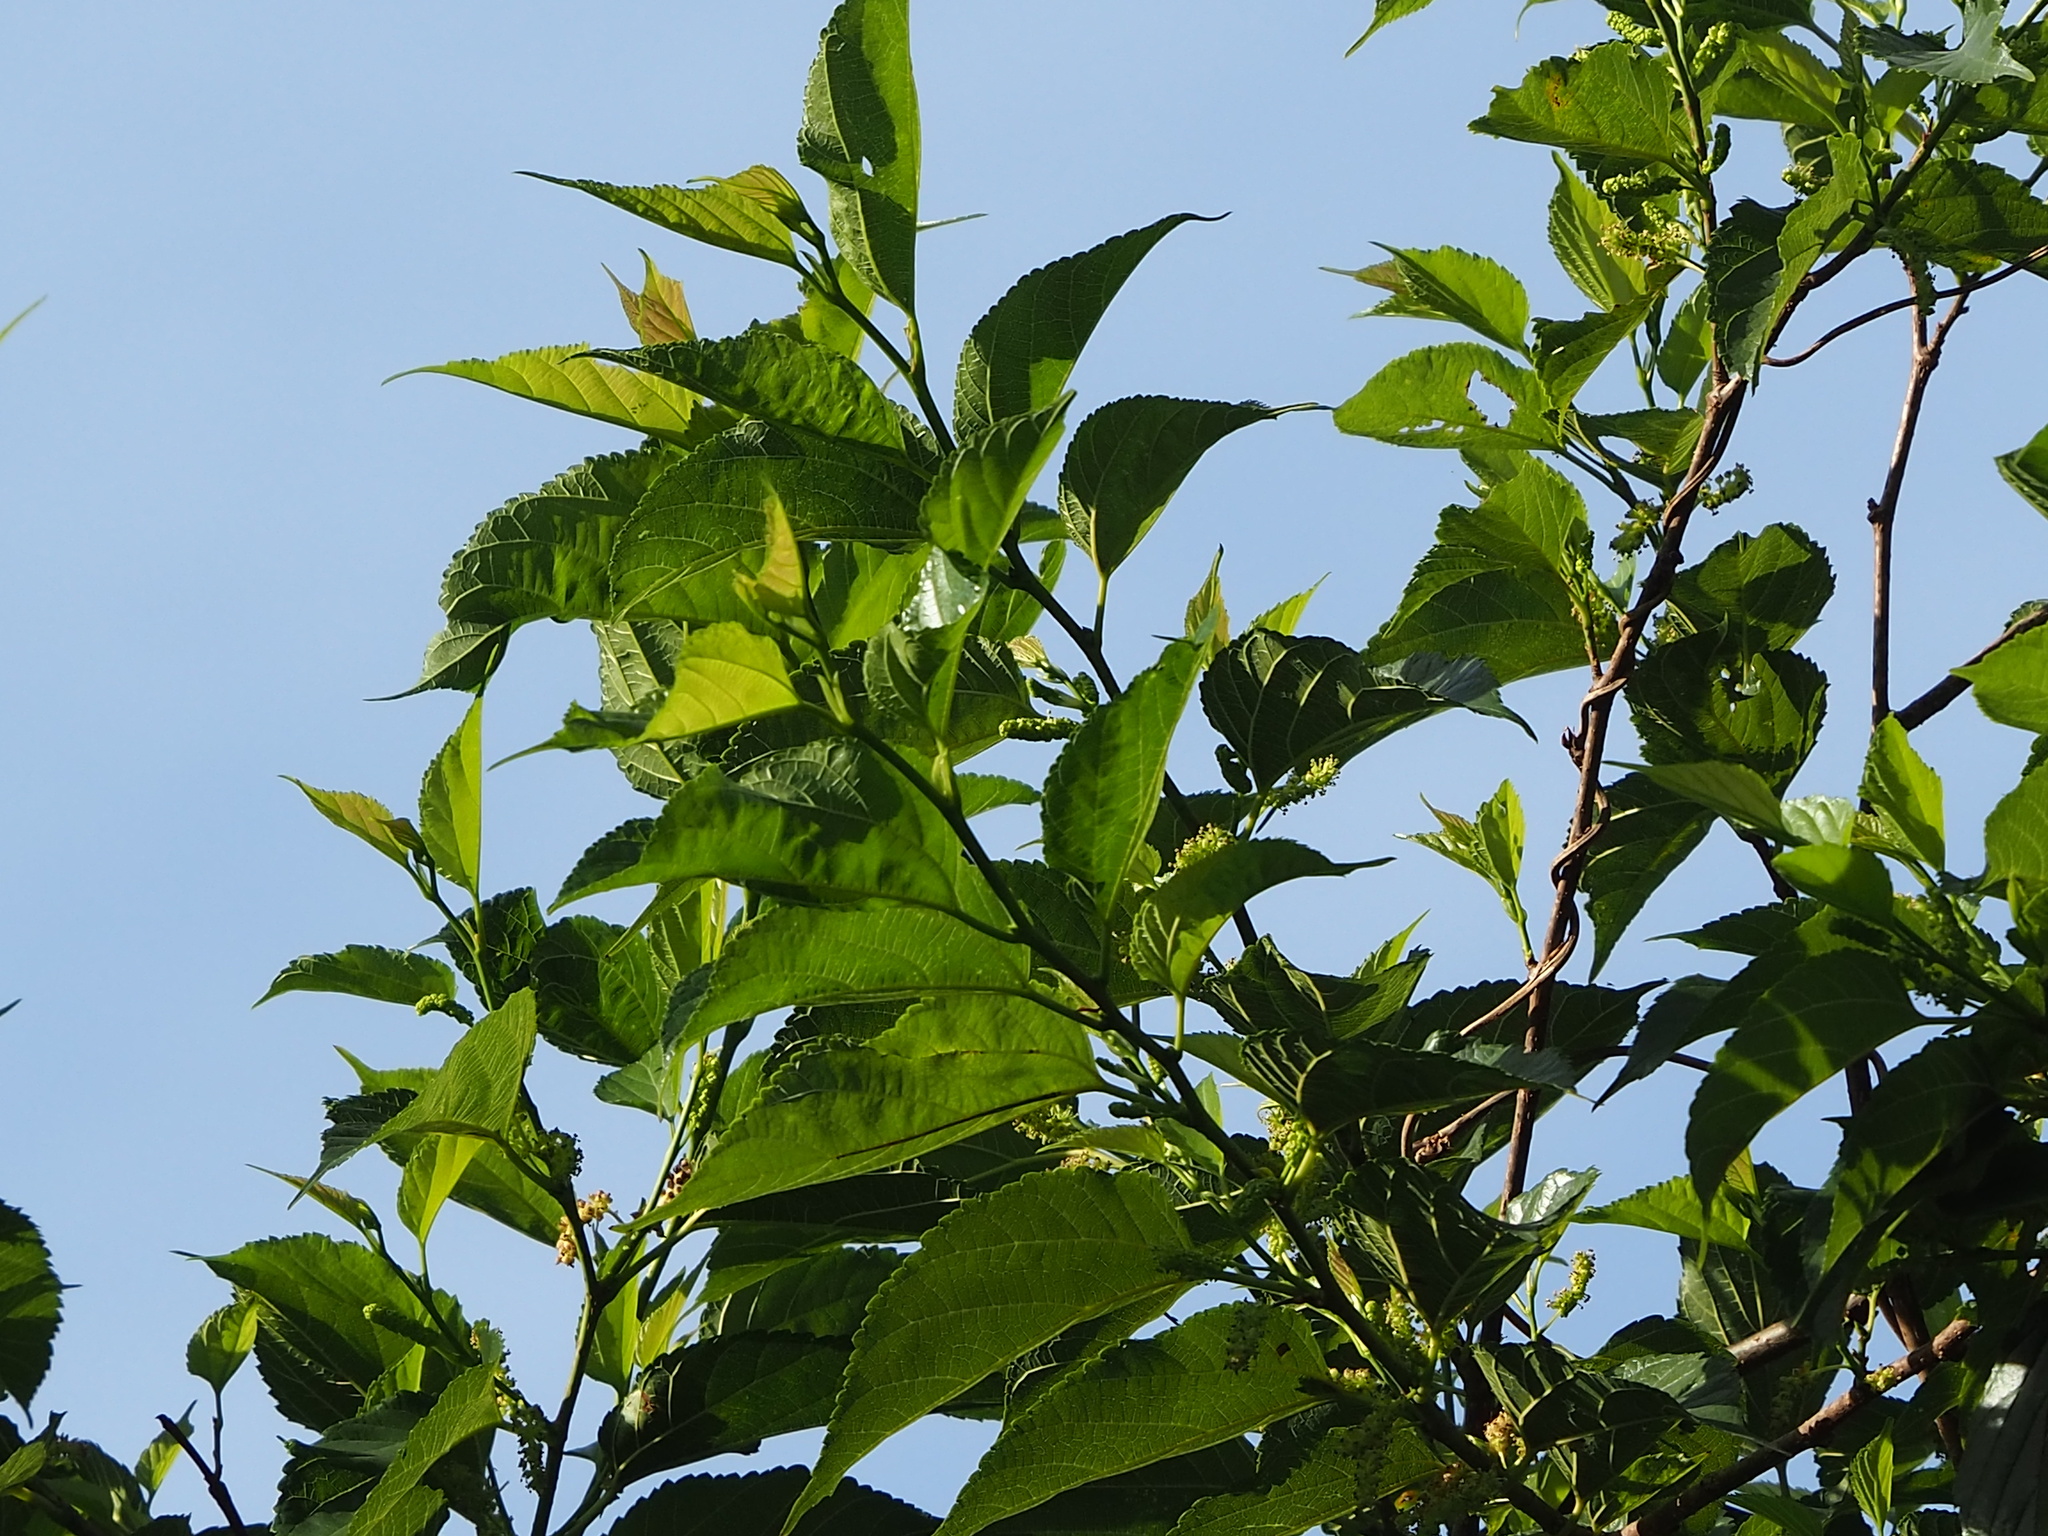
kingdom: Plantae
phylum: Tracheophyta
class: Magnoliopsida
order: Rosales
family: Moraceae
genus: Morus
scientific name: Morus indica
